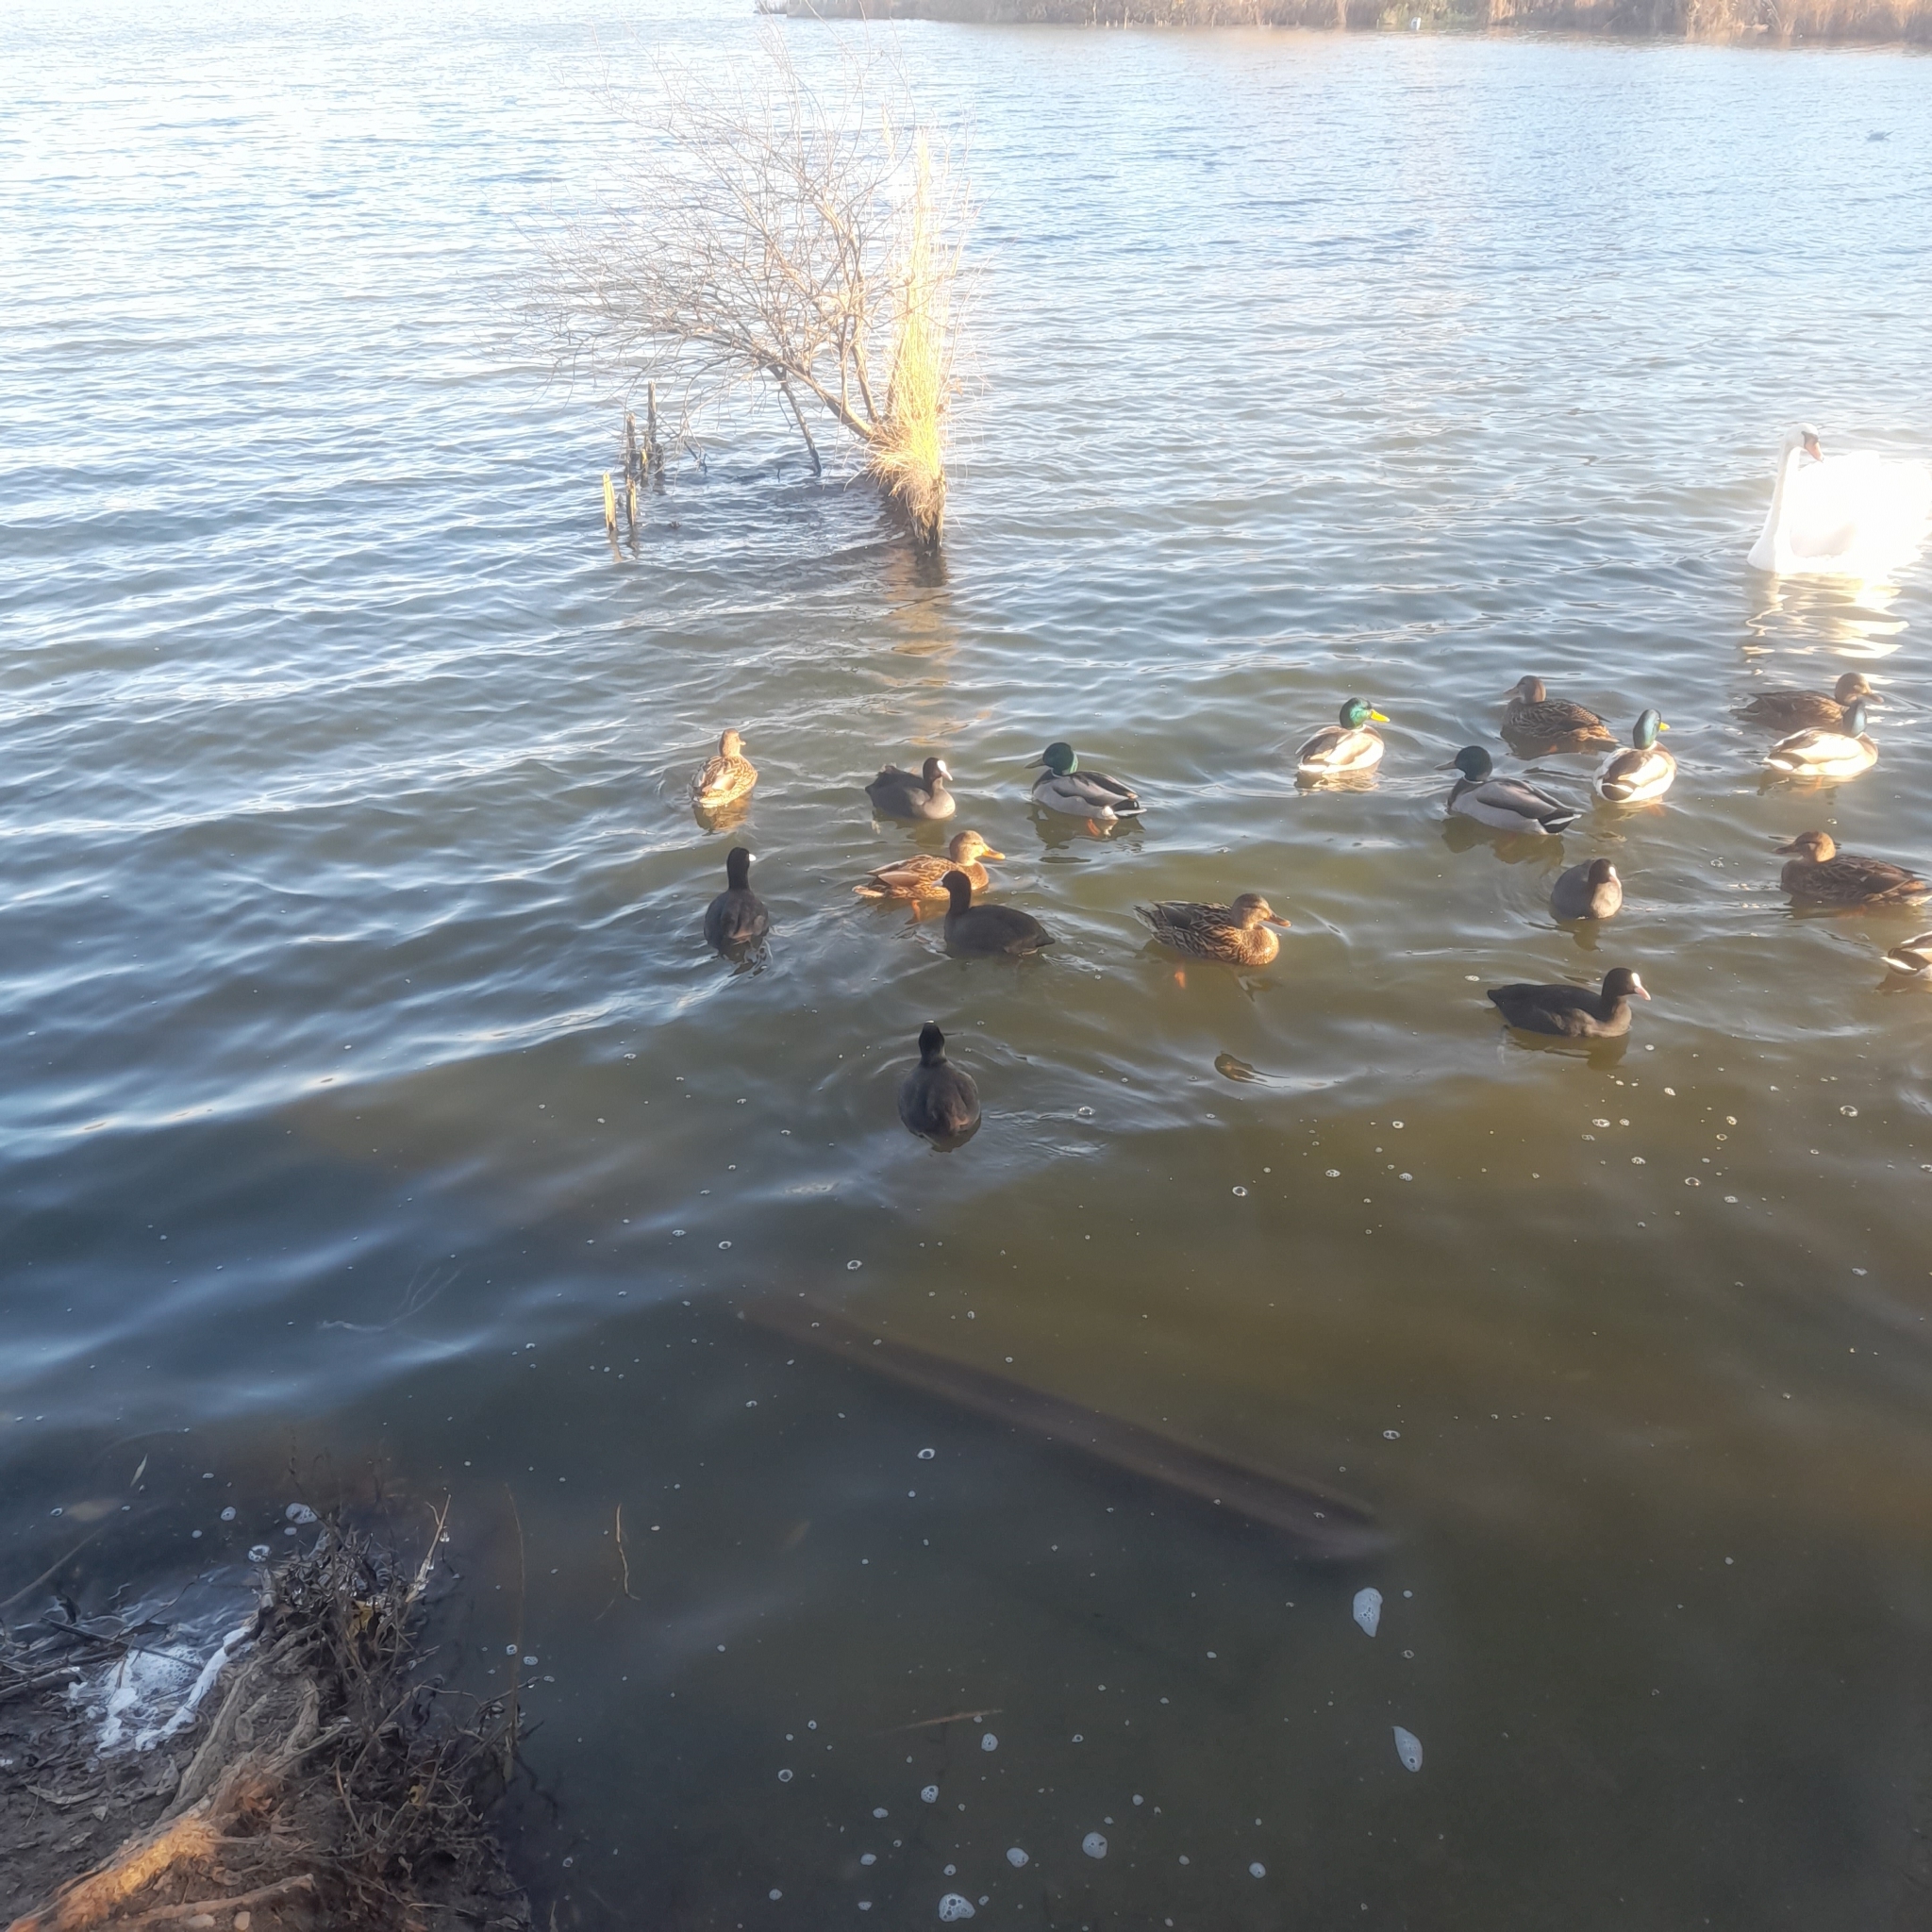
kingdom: Animalia
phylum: Chordata
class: Aves
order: Anseriformes
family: Anatidae
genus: Anas
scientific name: Anas platyrhynchos
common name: Mallard
